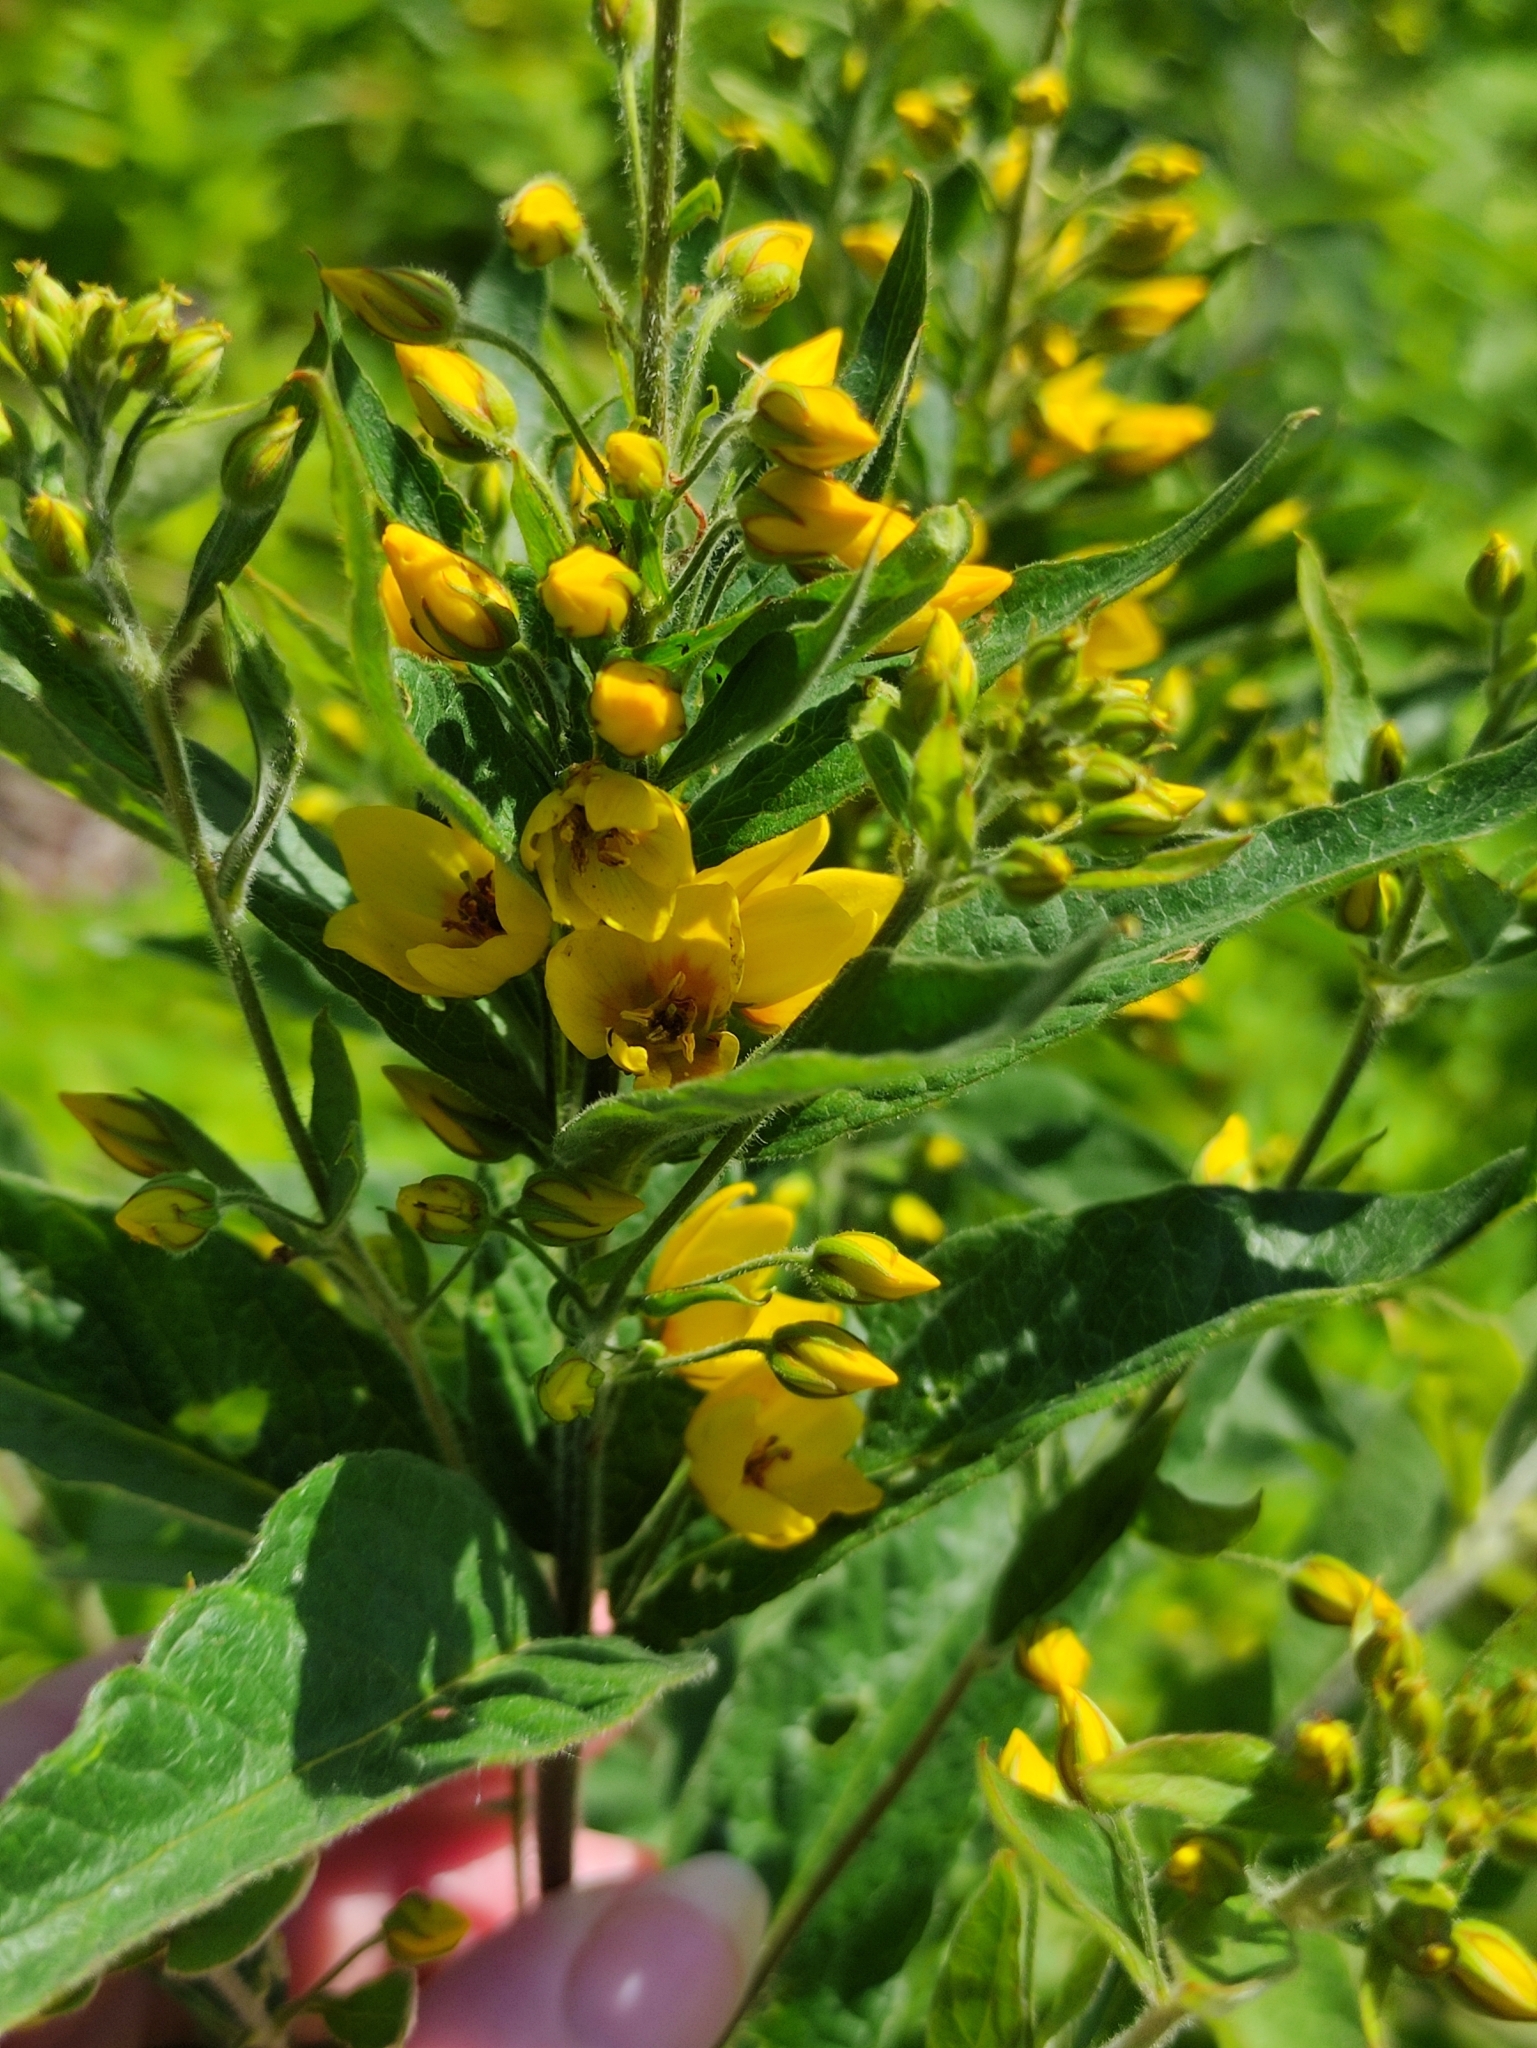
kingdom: Plantae
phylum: Tracheophyta
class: Magnoliopsida
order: Ericales
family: Primulaceae
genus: Lysimachia
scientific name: Lysimachia vulgaris
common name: Yellow loosestrife
